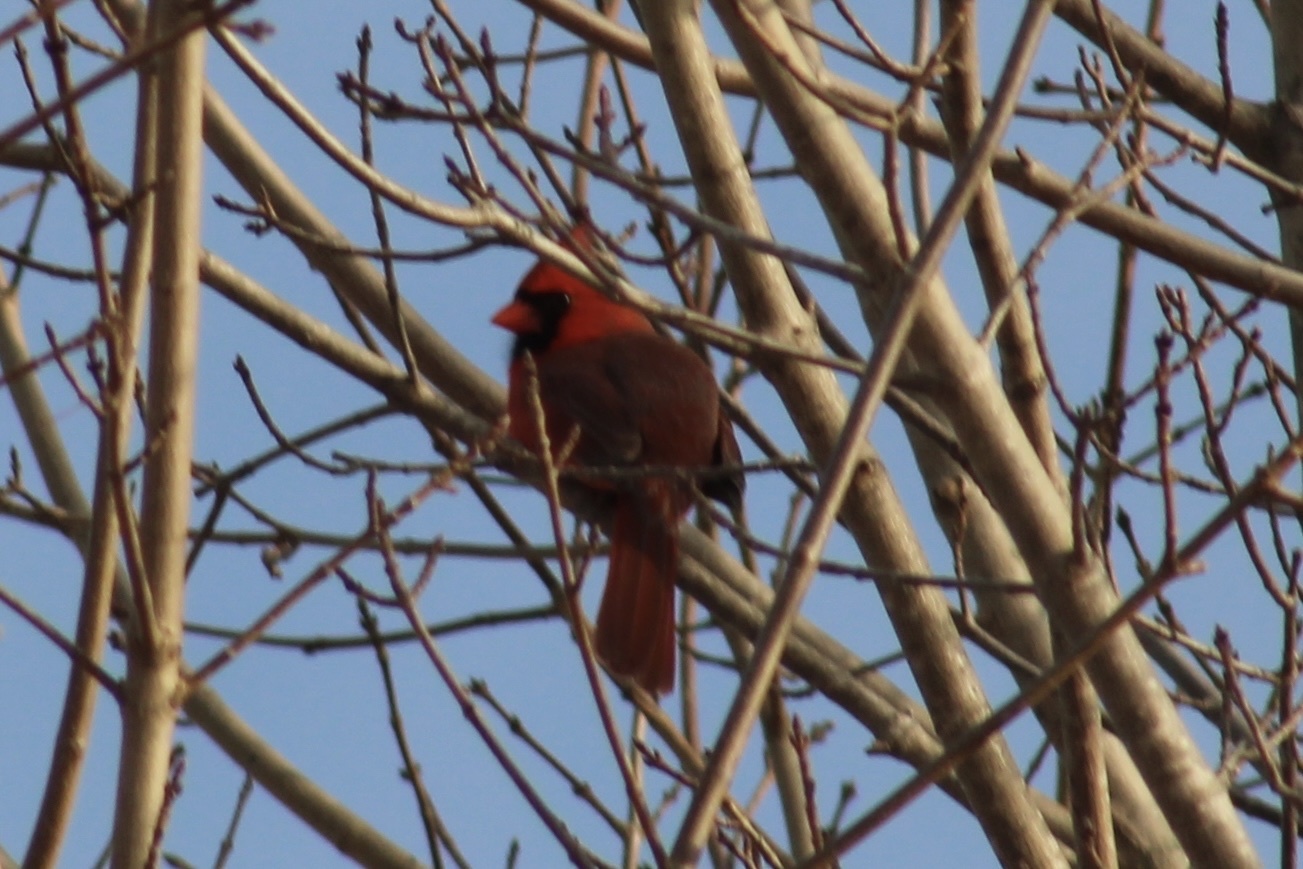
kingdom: Animalia
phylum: Chordata
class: Aves
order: Passeriformes
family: Cardinalidae
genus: Cardinalis
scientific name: Cardinalis cardinalis
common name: Northern cardinal
